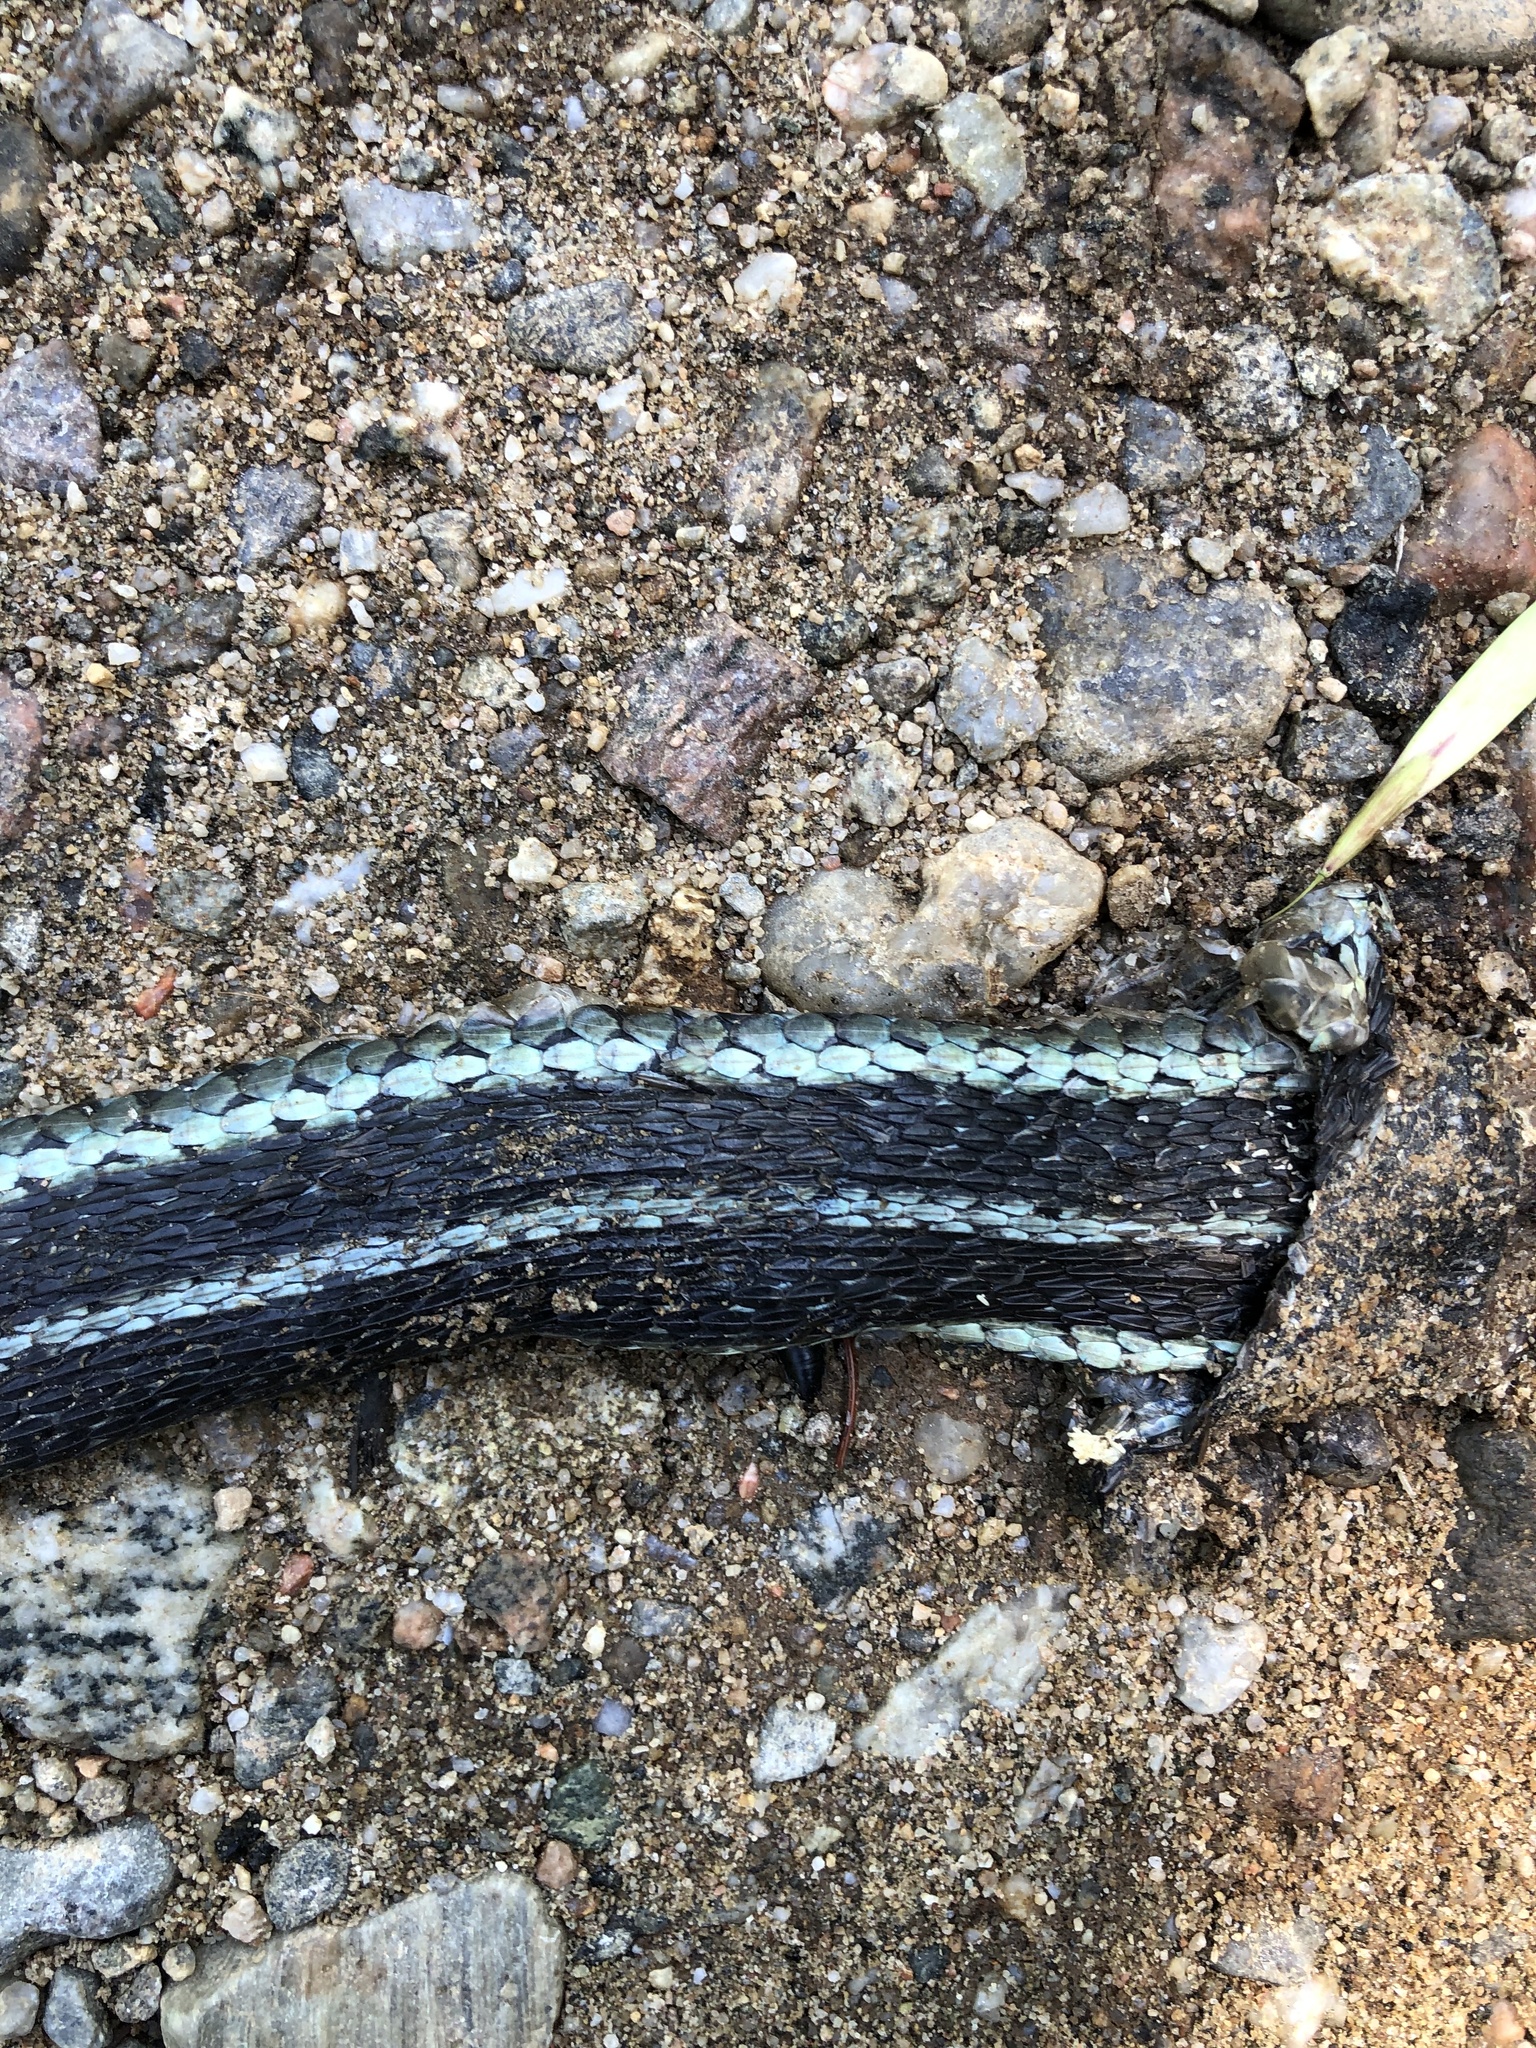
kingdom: Animalia
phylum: Chordata
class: Squamata
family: Colubridae
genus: Thamnophis
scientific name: Thamnophis sirtalis
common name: Common garter snake
